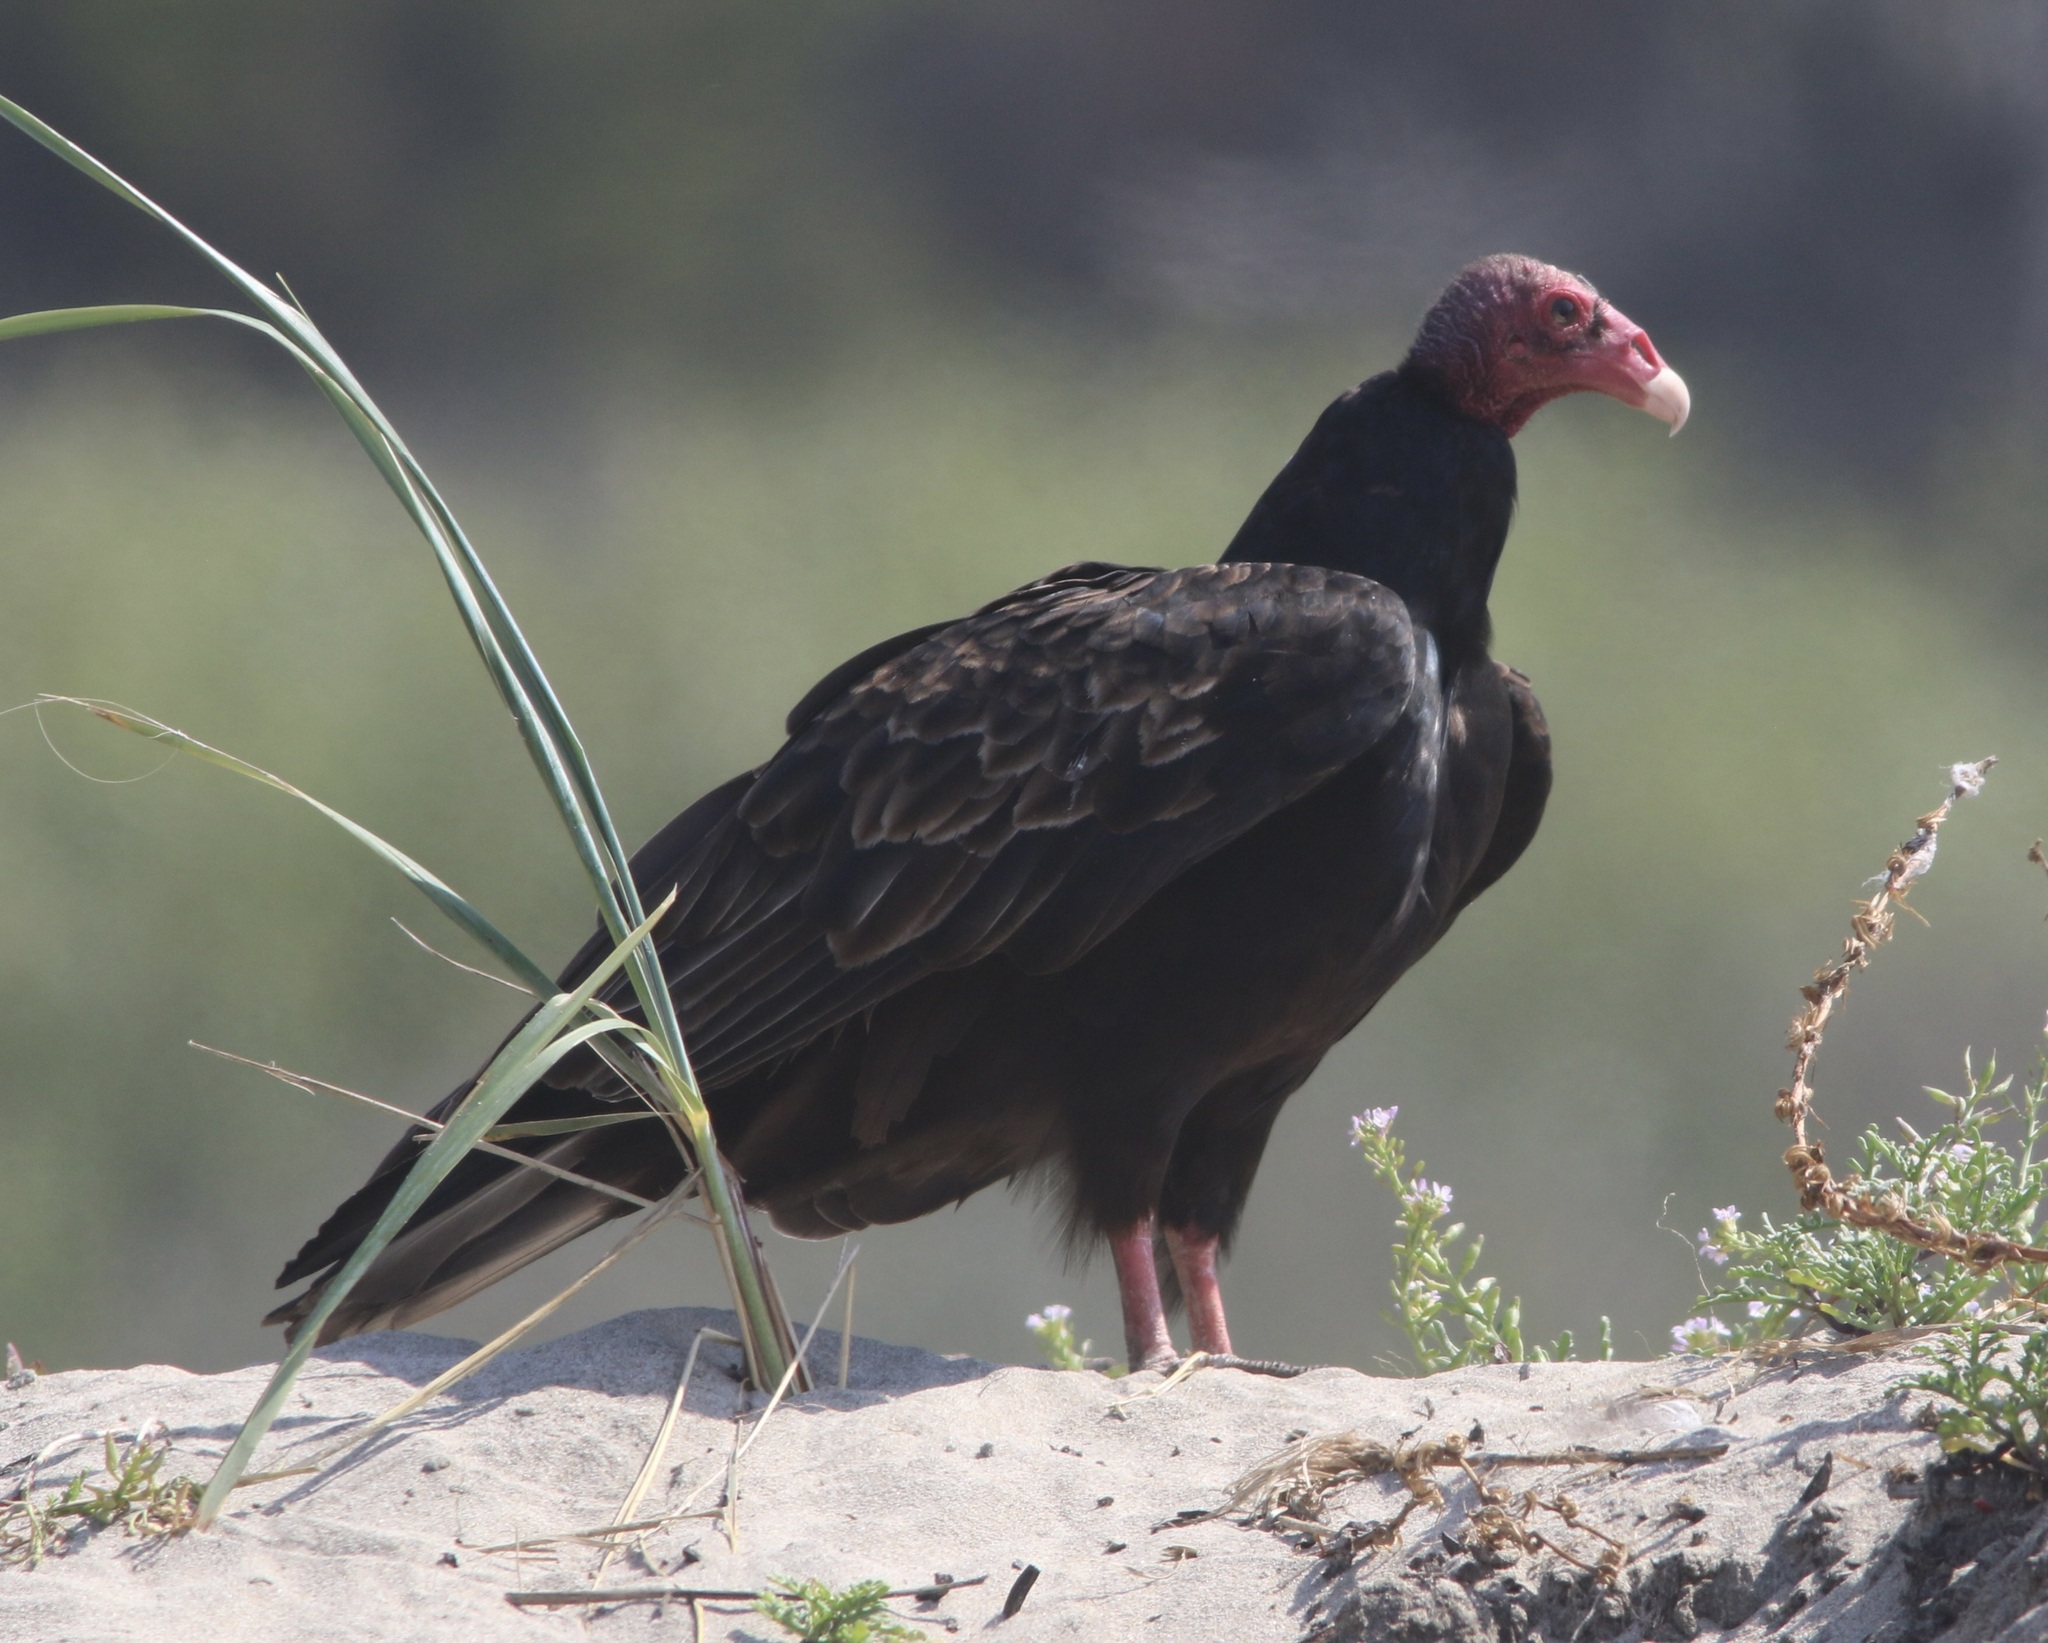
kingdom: Animalia
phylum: Chordata
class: Aves
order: Accipitriformes
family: Cathartidae
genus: Cathartes
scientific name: Cathartes aura
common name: Turkey vulture
